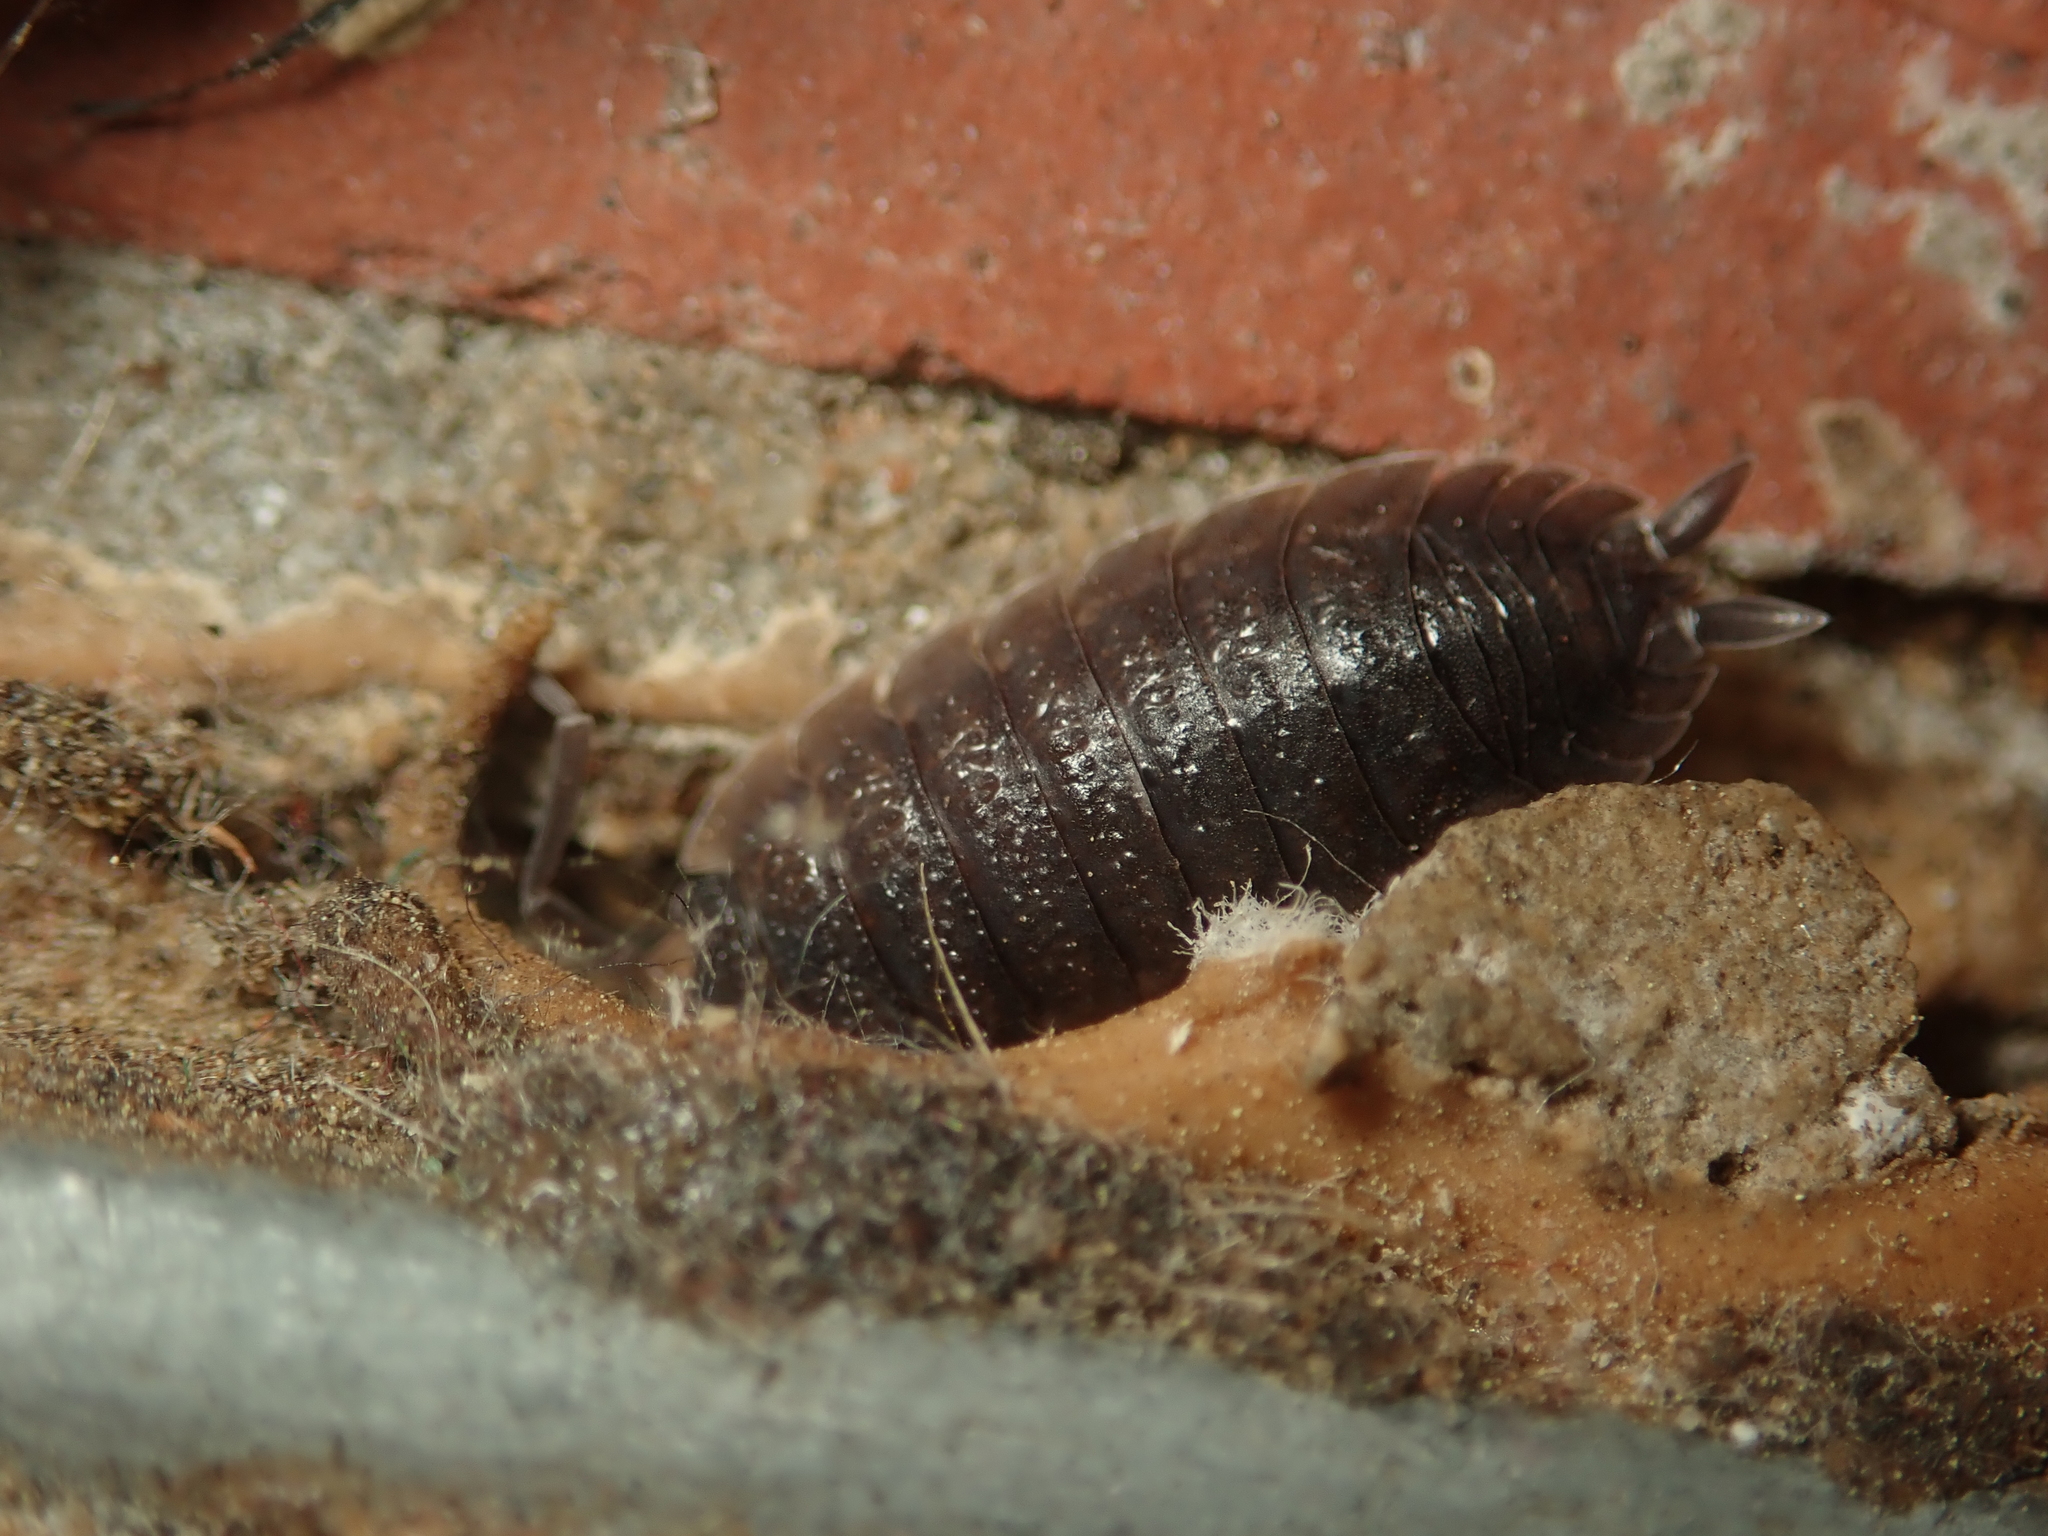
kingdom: Animalia
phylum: Arthropoda
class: Malacostraca
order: Isopoda
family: Porcellionidae
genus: Porcellio
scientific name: Porcellio scaber
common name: Common rough woodlouse
